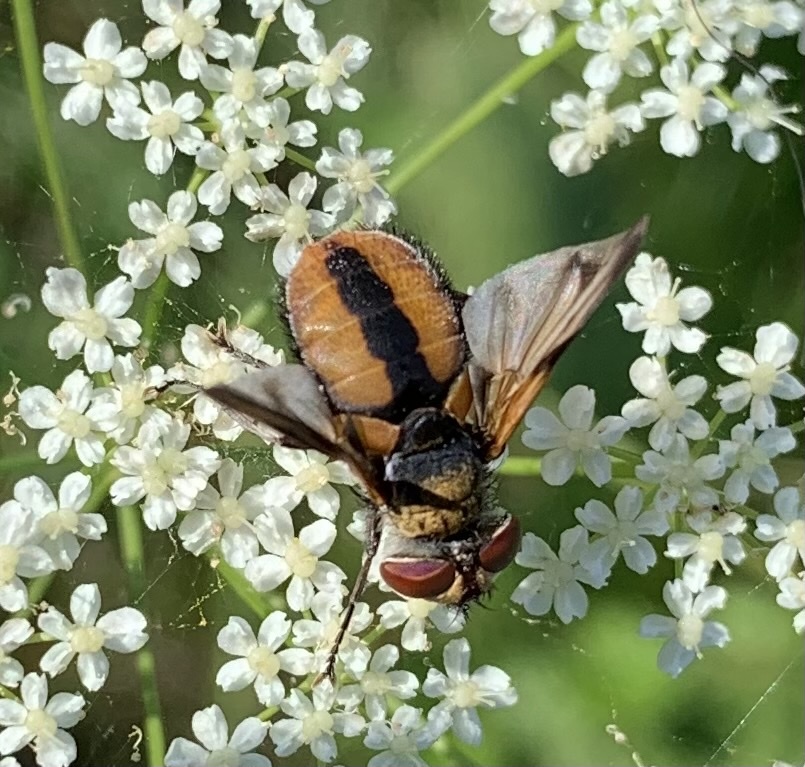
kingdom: Animalia
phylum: Arthropoda
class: Insecta
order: Diptera
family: Tachinidae
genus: Ectophasia
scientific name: Ectophasia crassipennis
